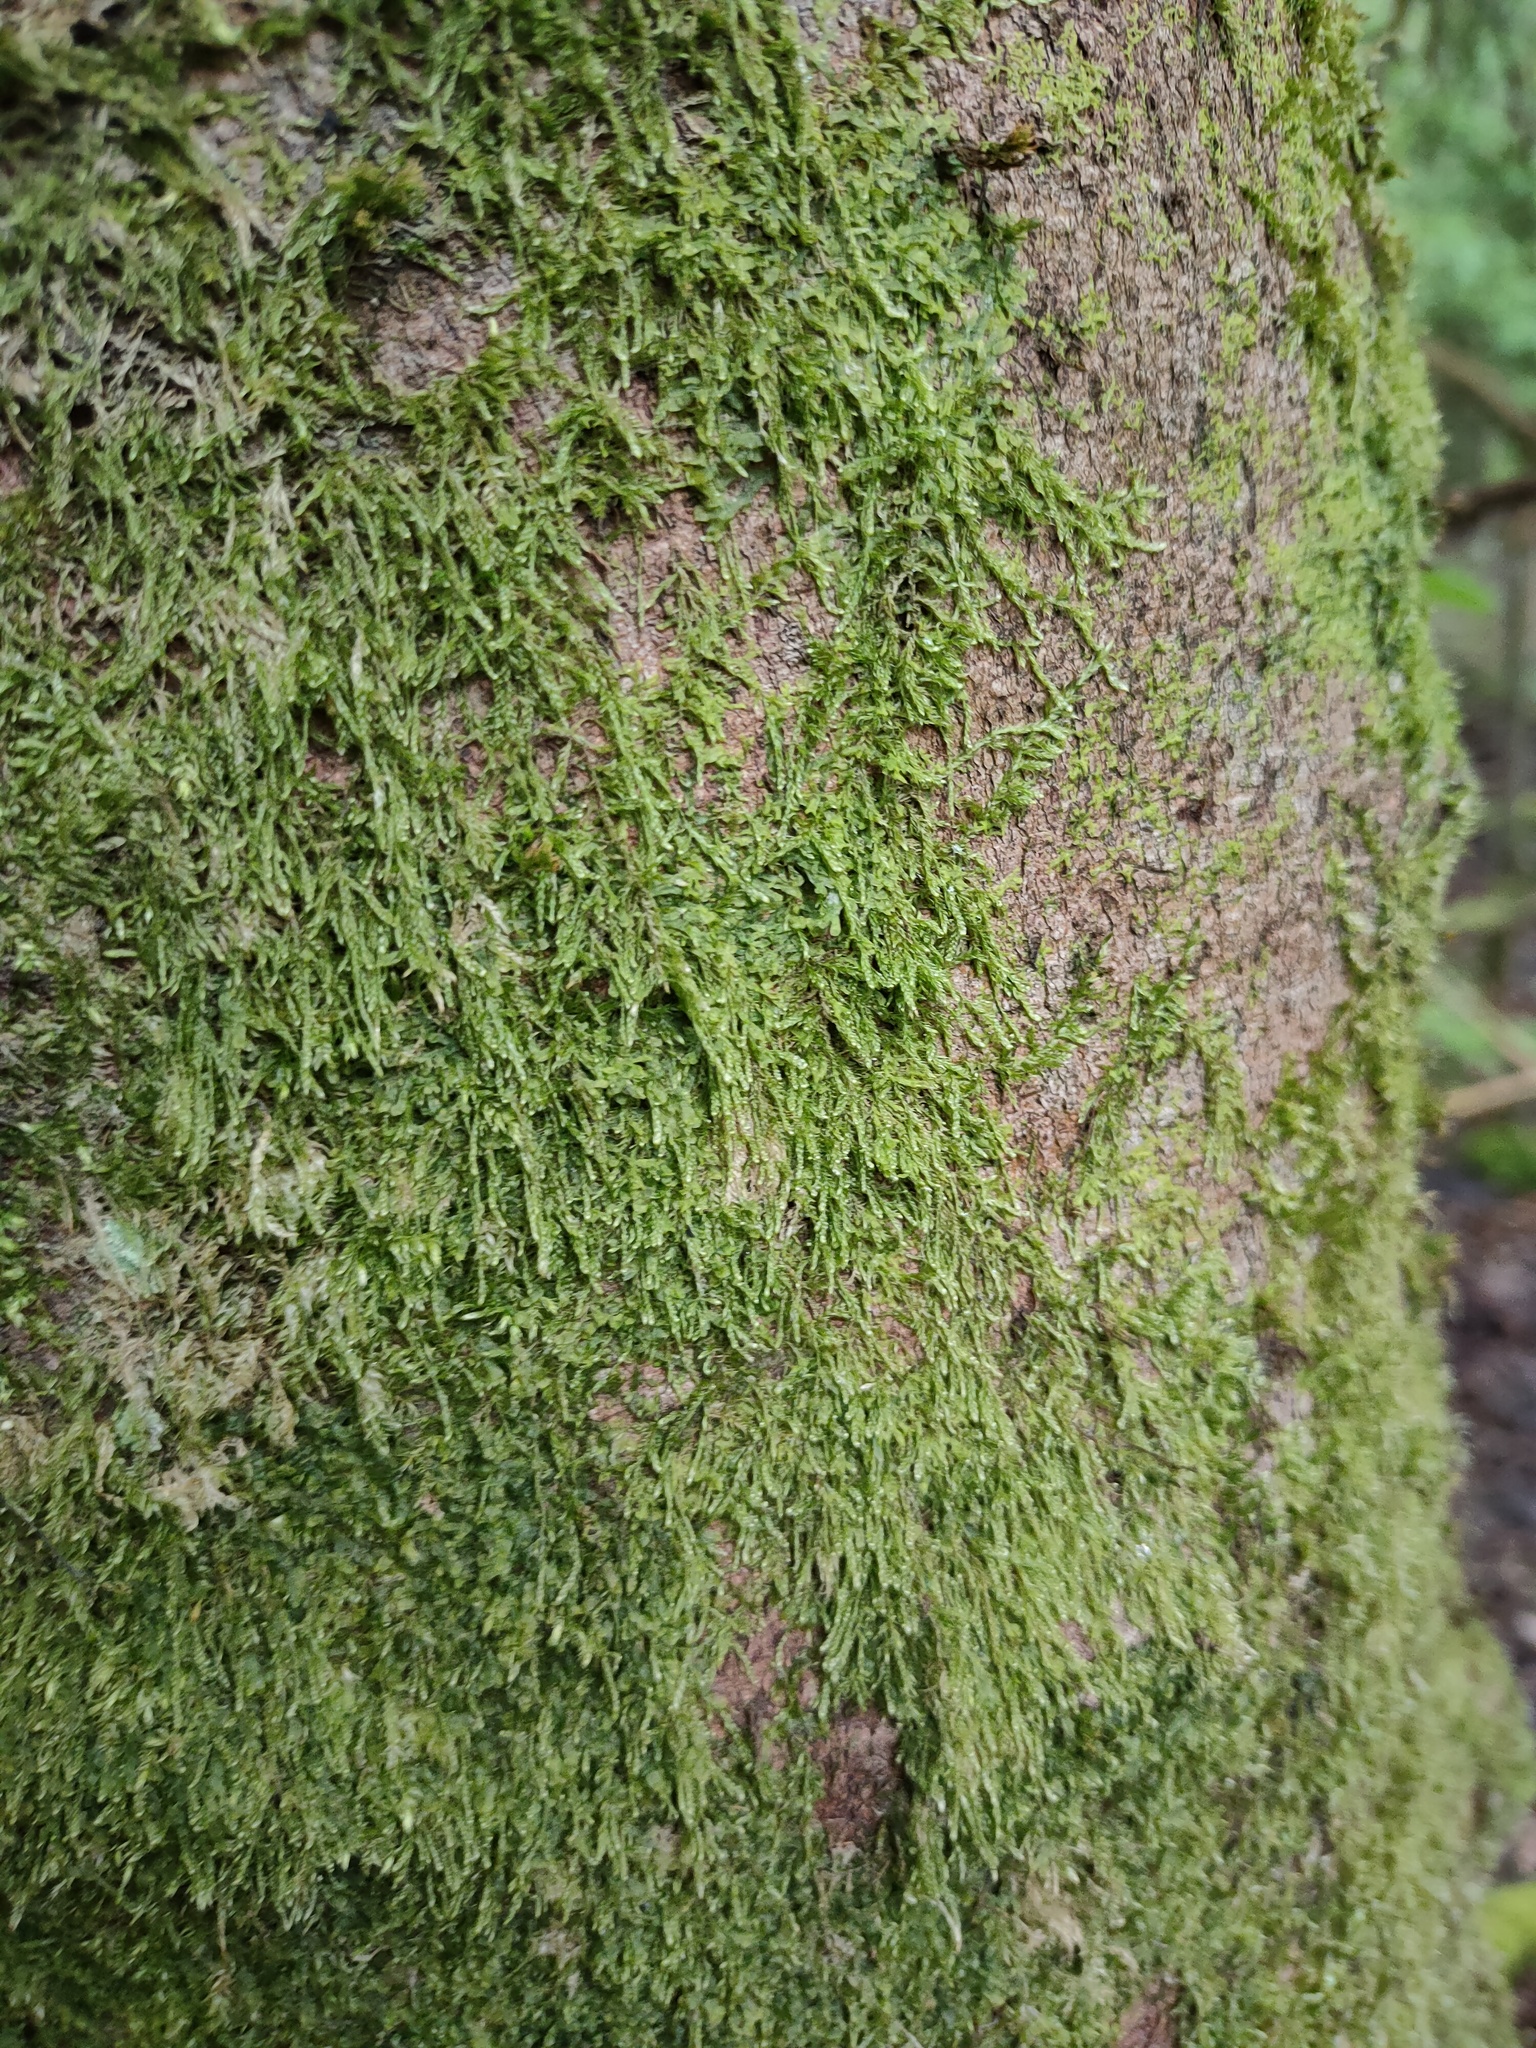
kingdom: Plantae
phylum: Bryophyta
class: Bryopsida
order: Hypnales
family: Hypnaceae
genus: Hypnum
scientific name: Hypnum cupressiforme
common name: Cypress-leaved plait-moss
